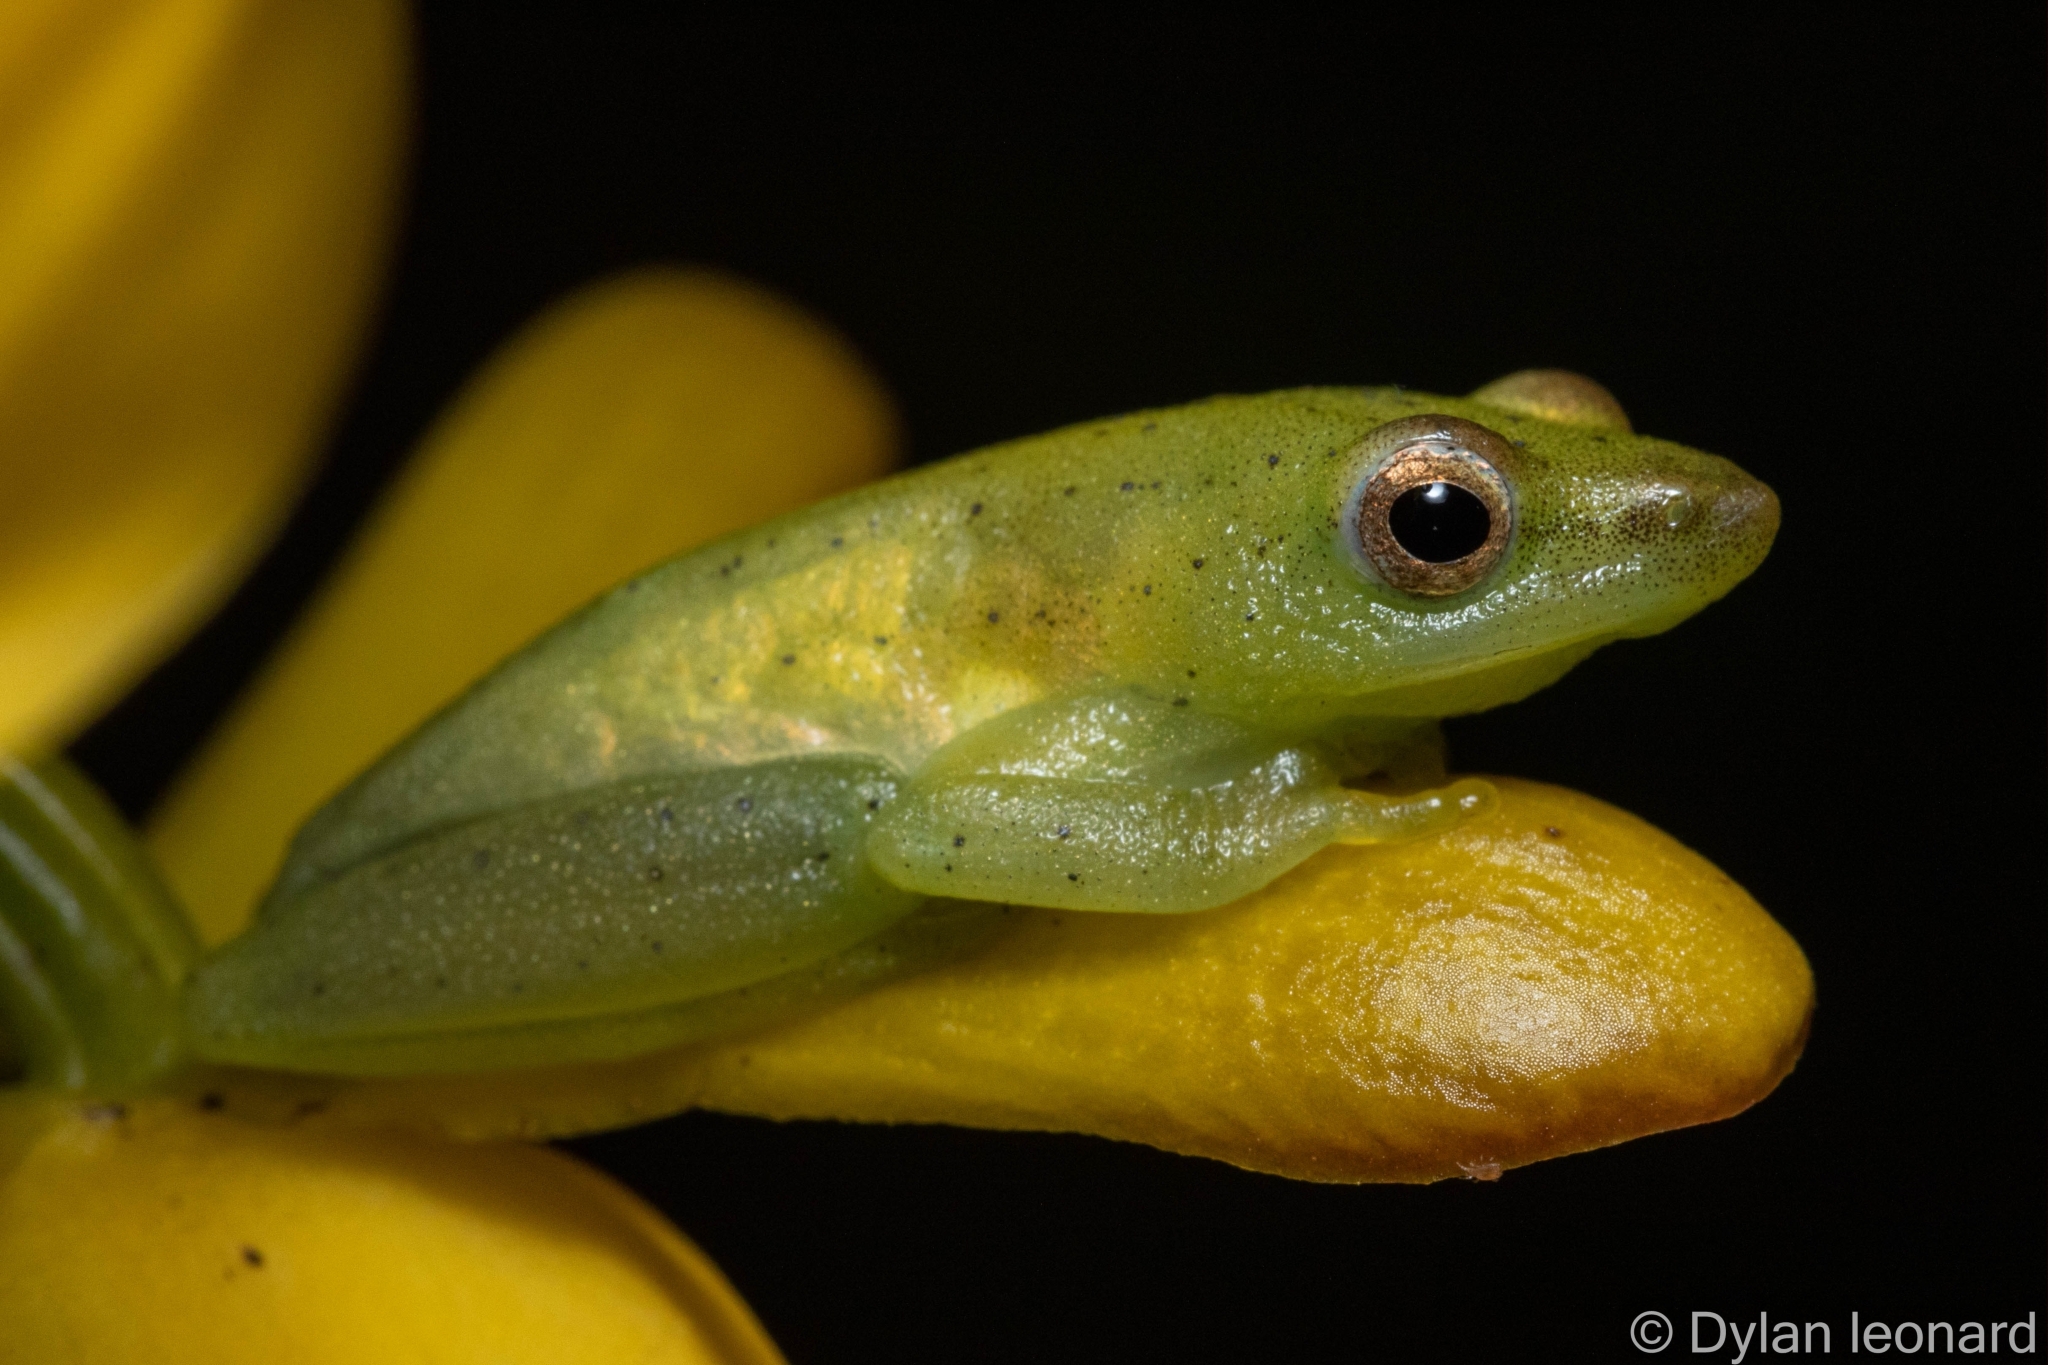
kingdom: Animalia
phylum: Chordata
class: Amphibia
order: Anura
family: Hyperoliidae
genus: Hyperolius
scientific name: Hyperolius poweri
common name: Power's reed frog
